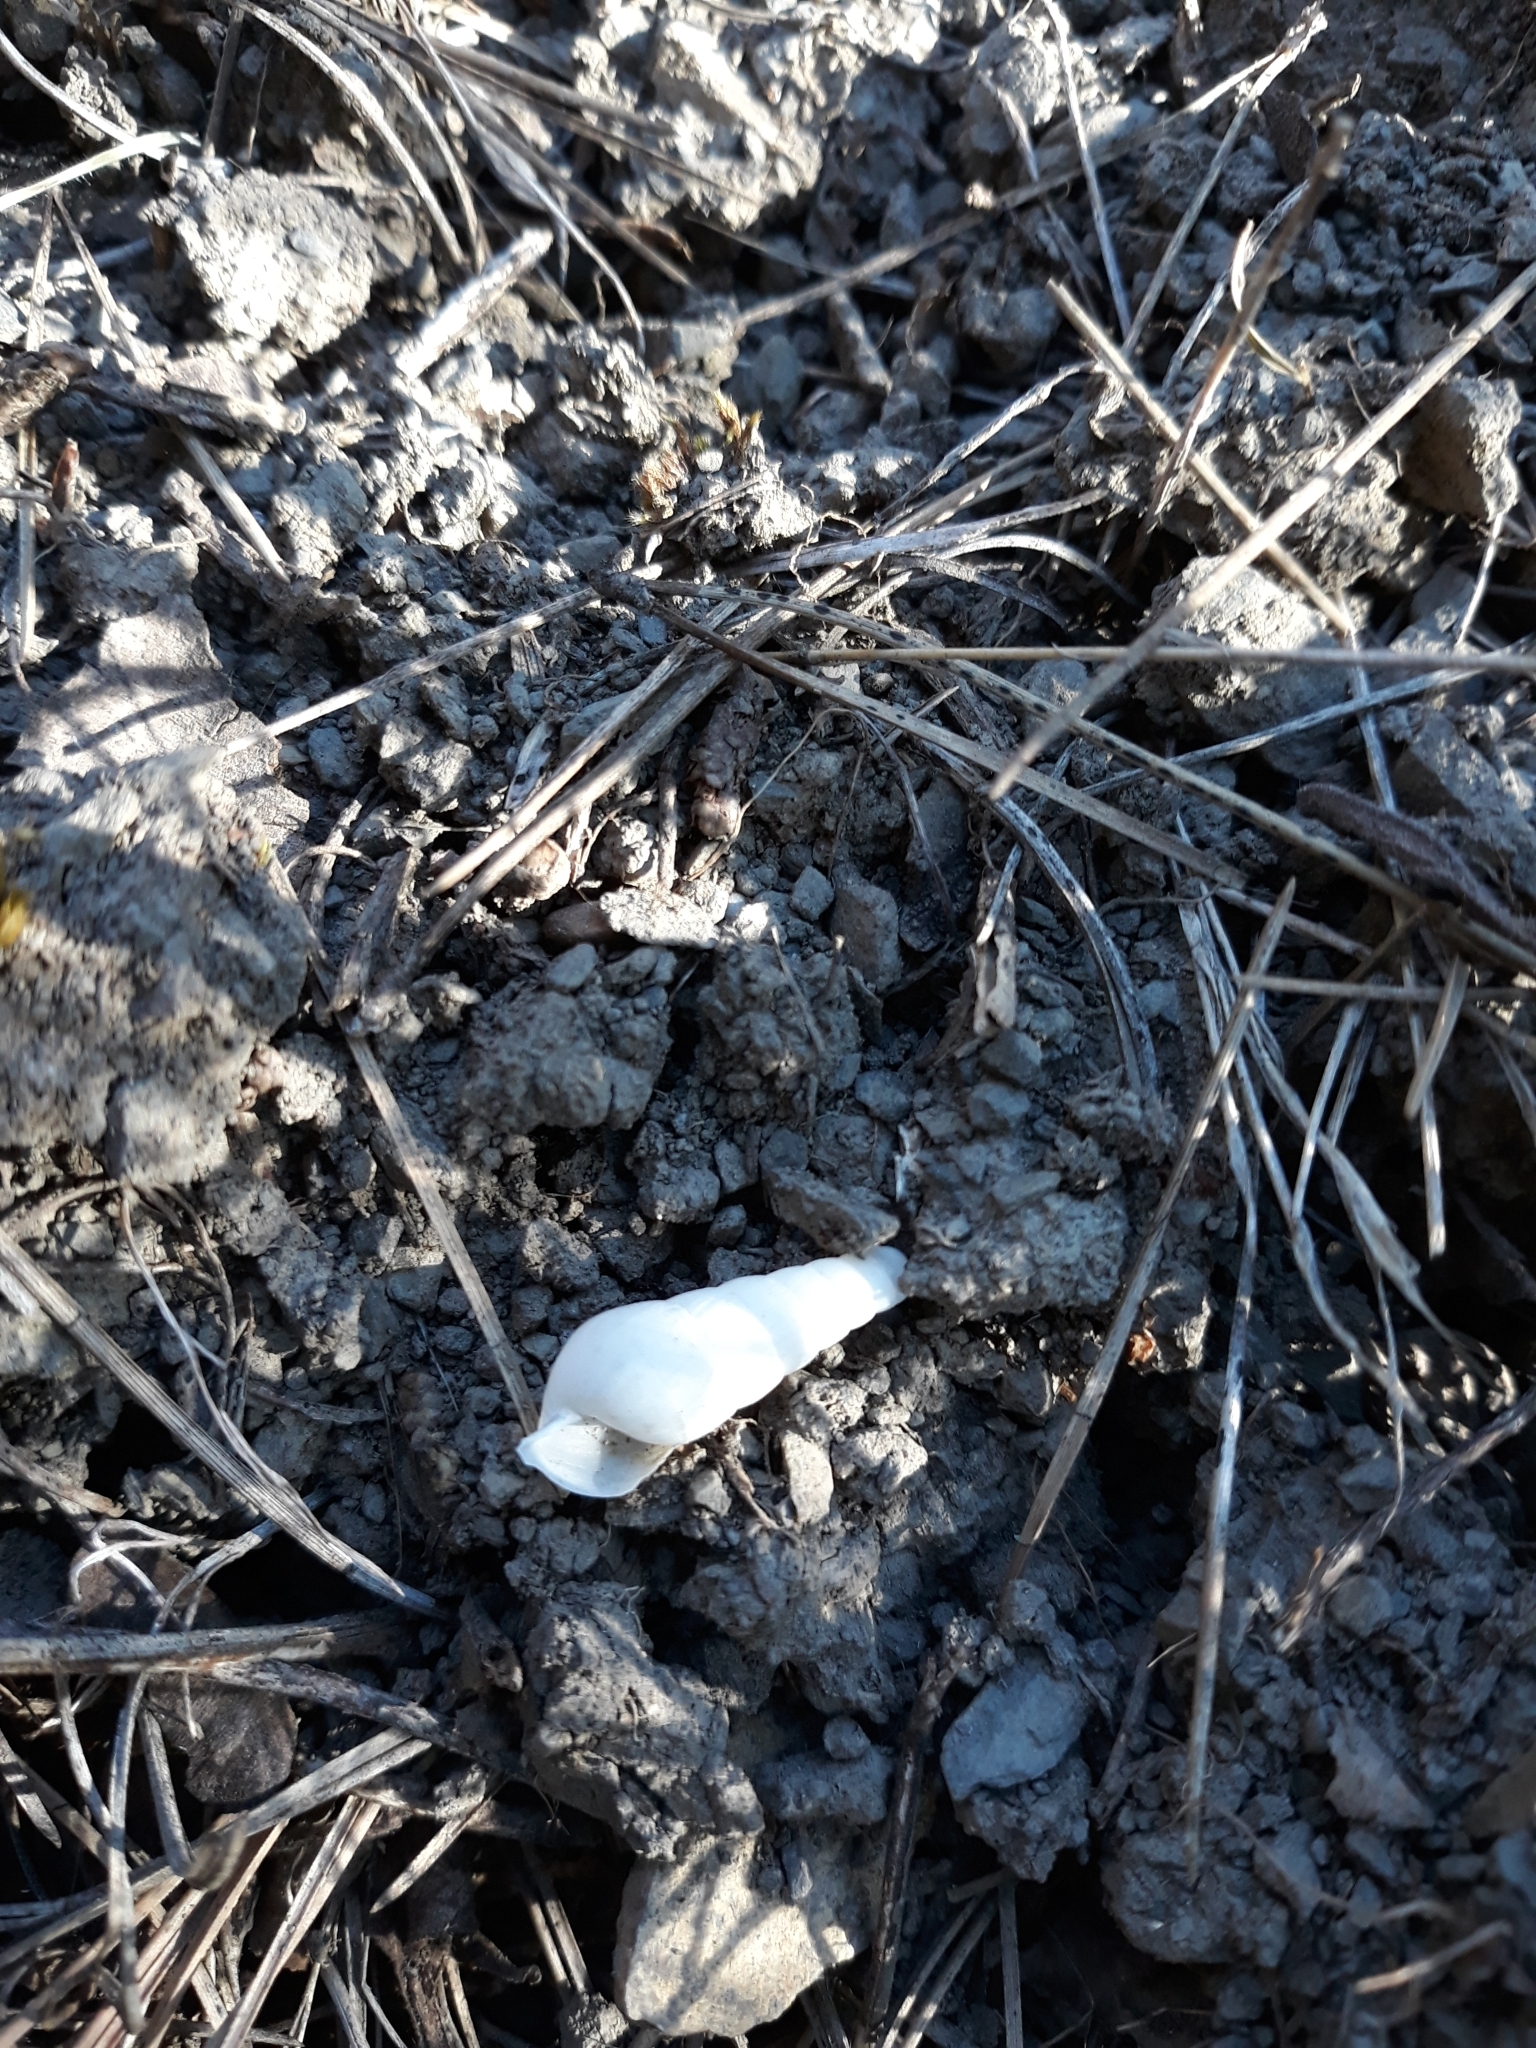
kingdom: Animalia
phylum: Mollusca
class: Gastropoda
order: Stylommatophora
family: Achatinidae
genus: Rumina
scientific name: Rumina decollata
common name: Decollate snail
